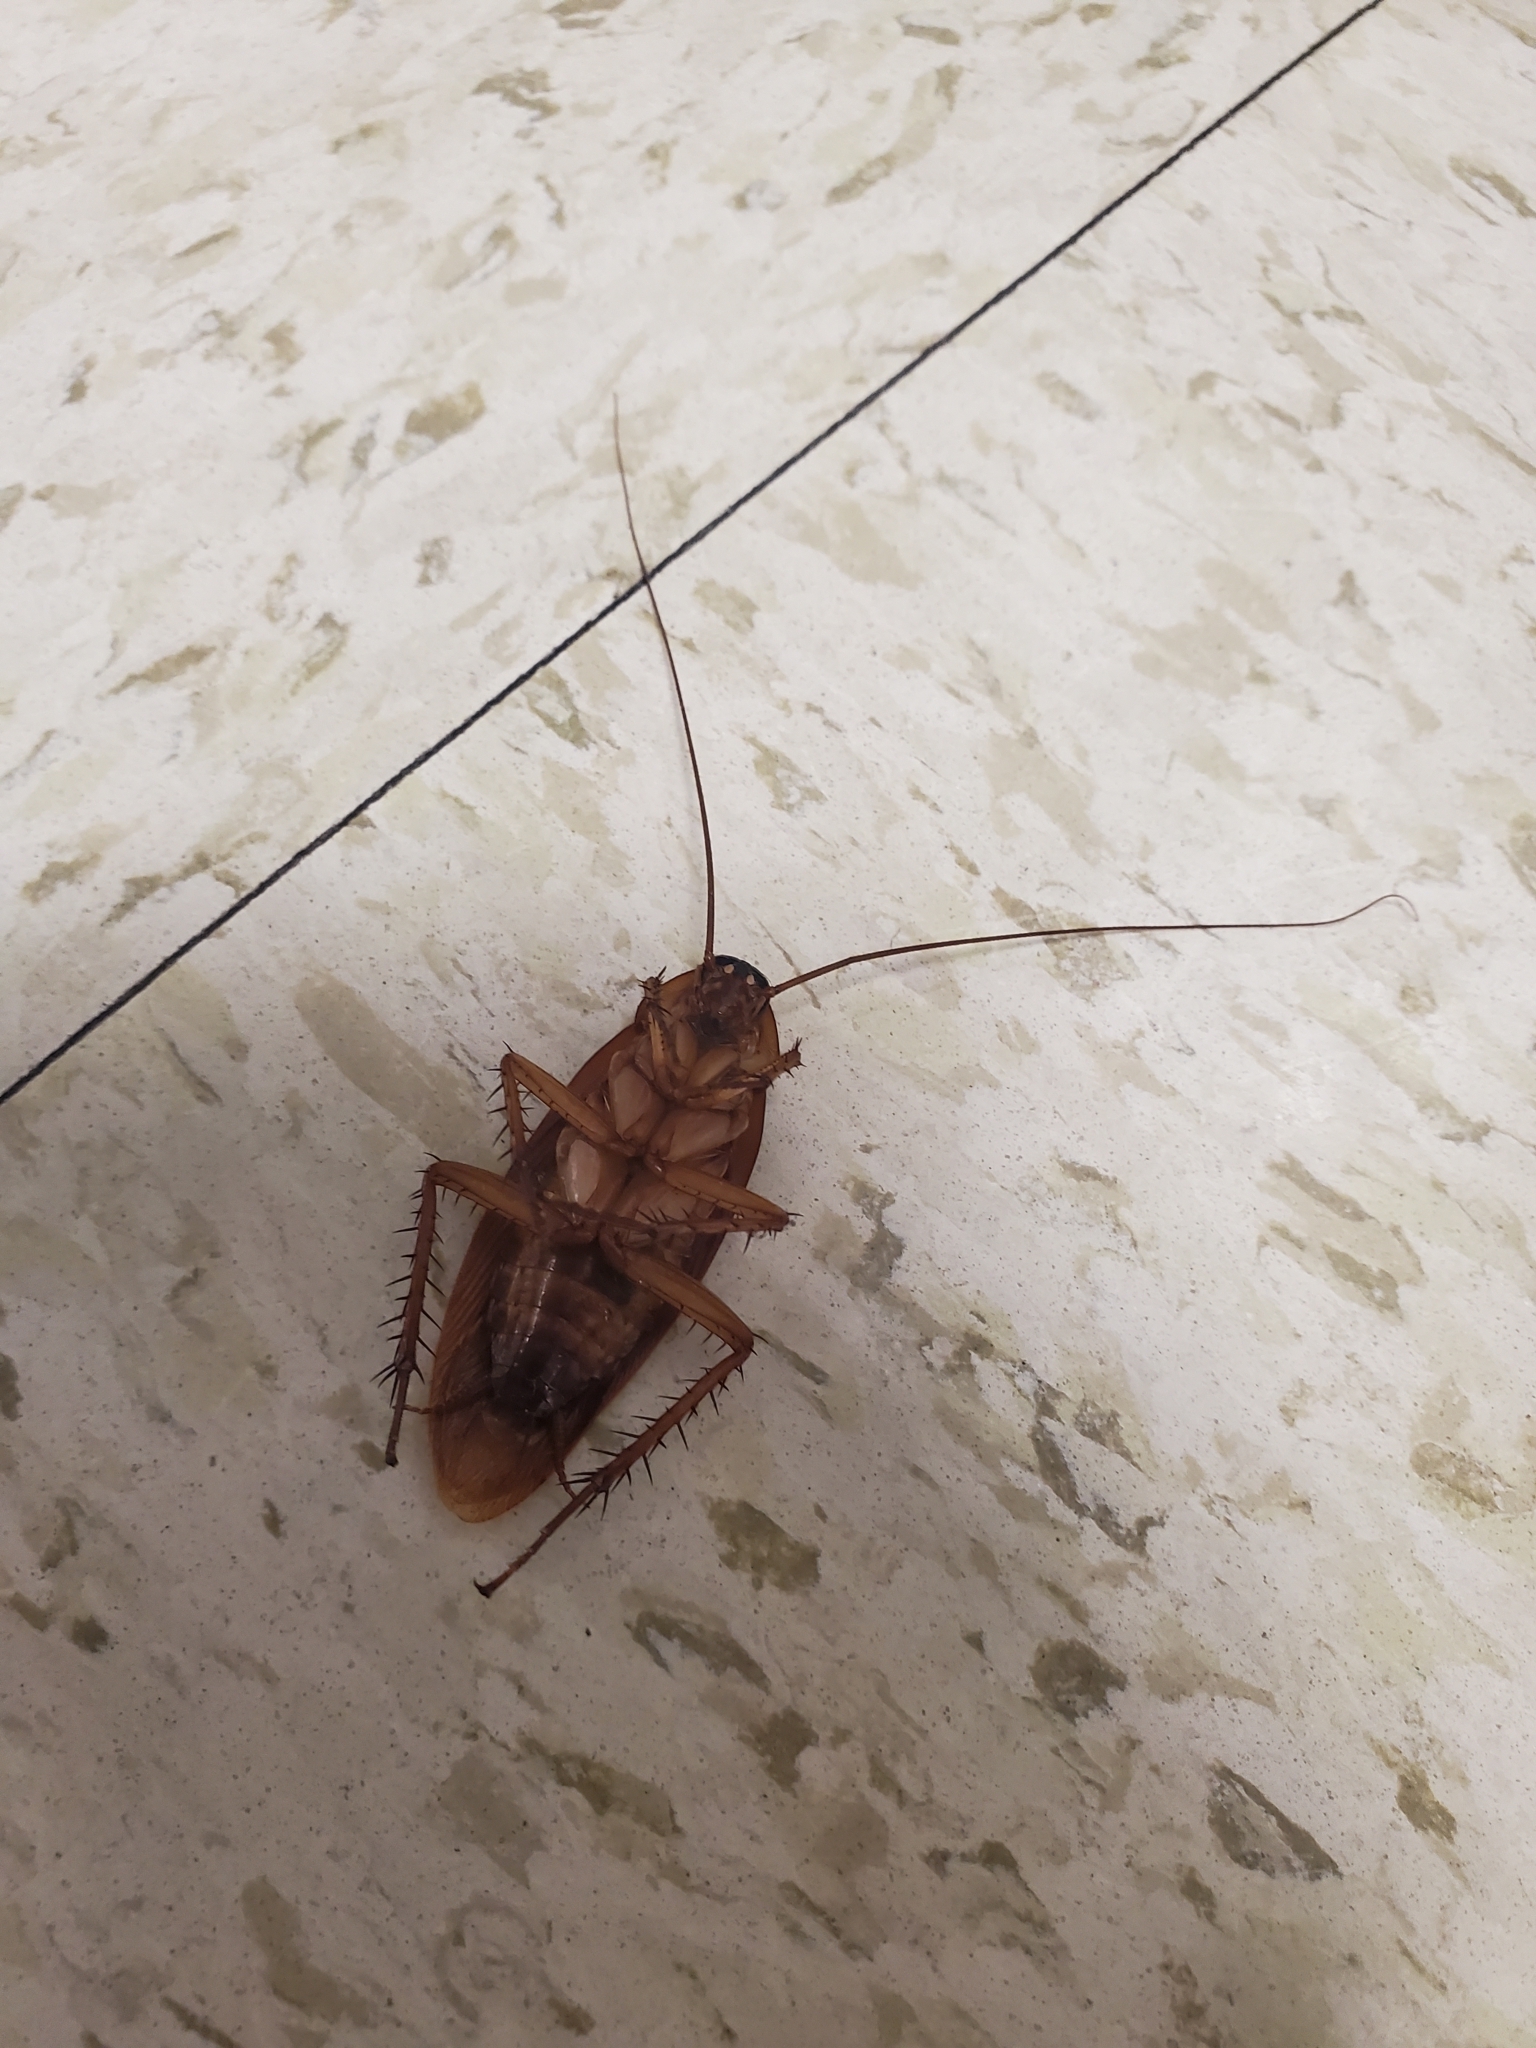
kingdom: Animalia
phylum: Arthropoda
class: Insecta
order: Blattodea
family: Blattidae
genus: Periplaneta
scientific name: Periplaneta americana
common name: American cockroach
